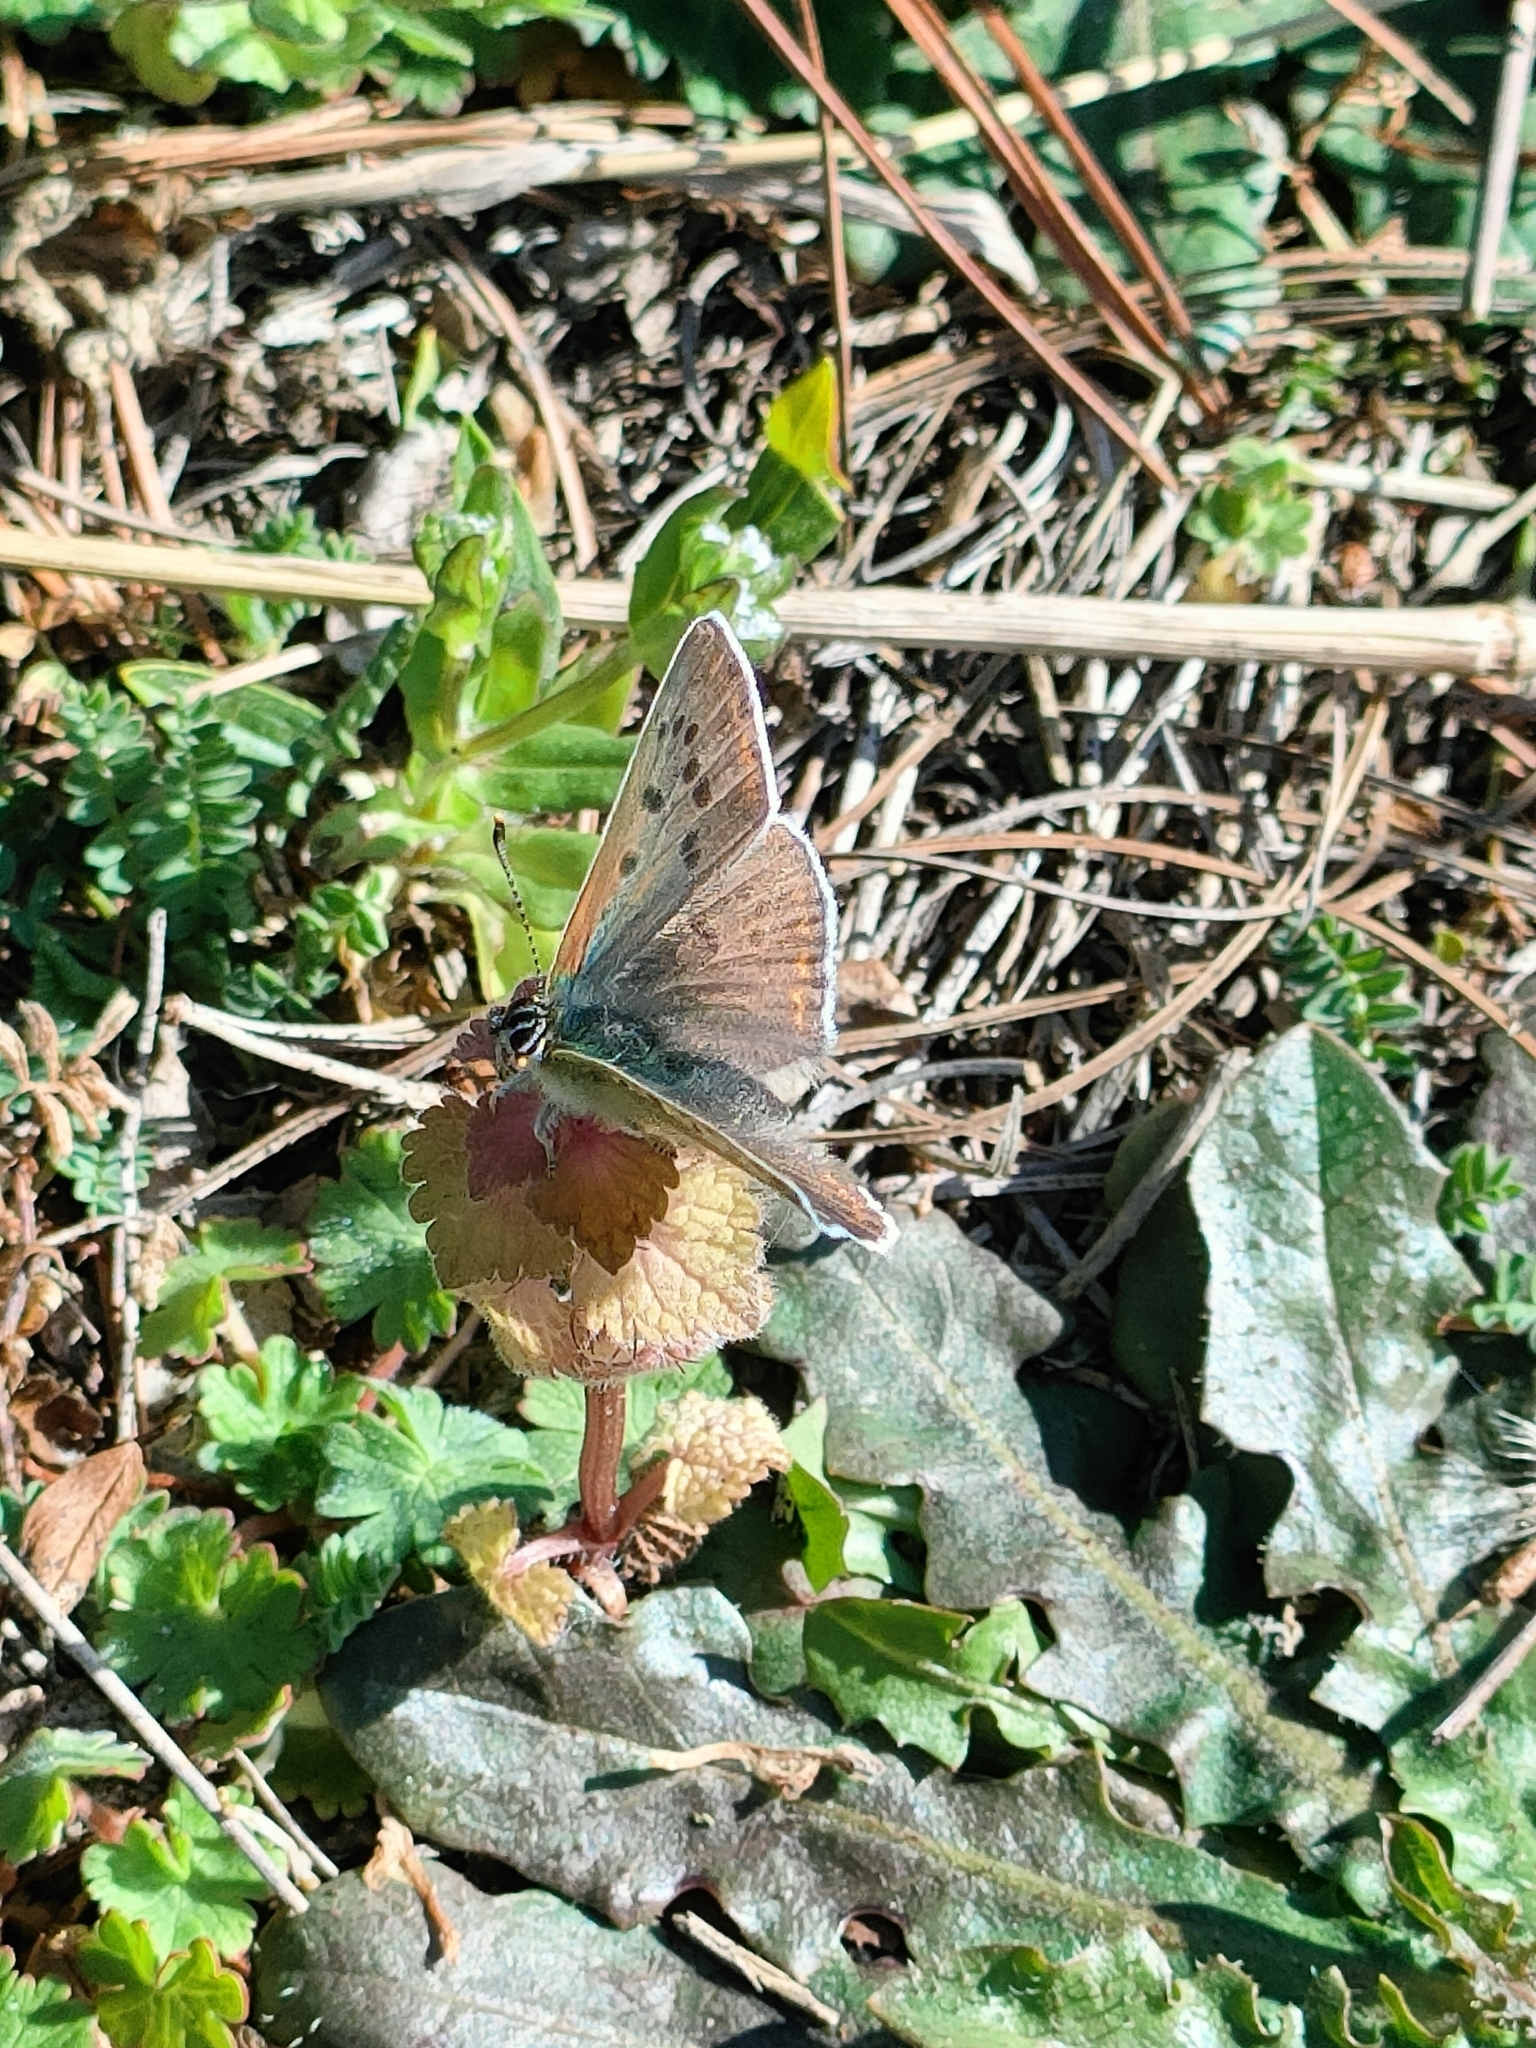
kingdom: Animalia
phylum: Arthropoda
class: Insecta
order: Lepidoptera
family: Lycaenidae
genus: Loweia
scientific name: Loweia tityrus
